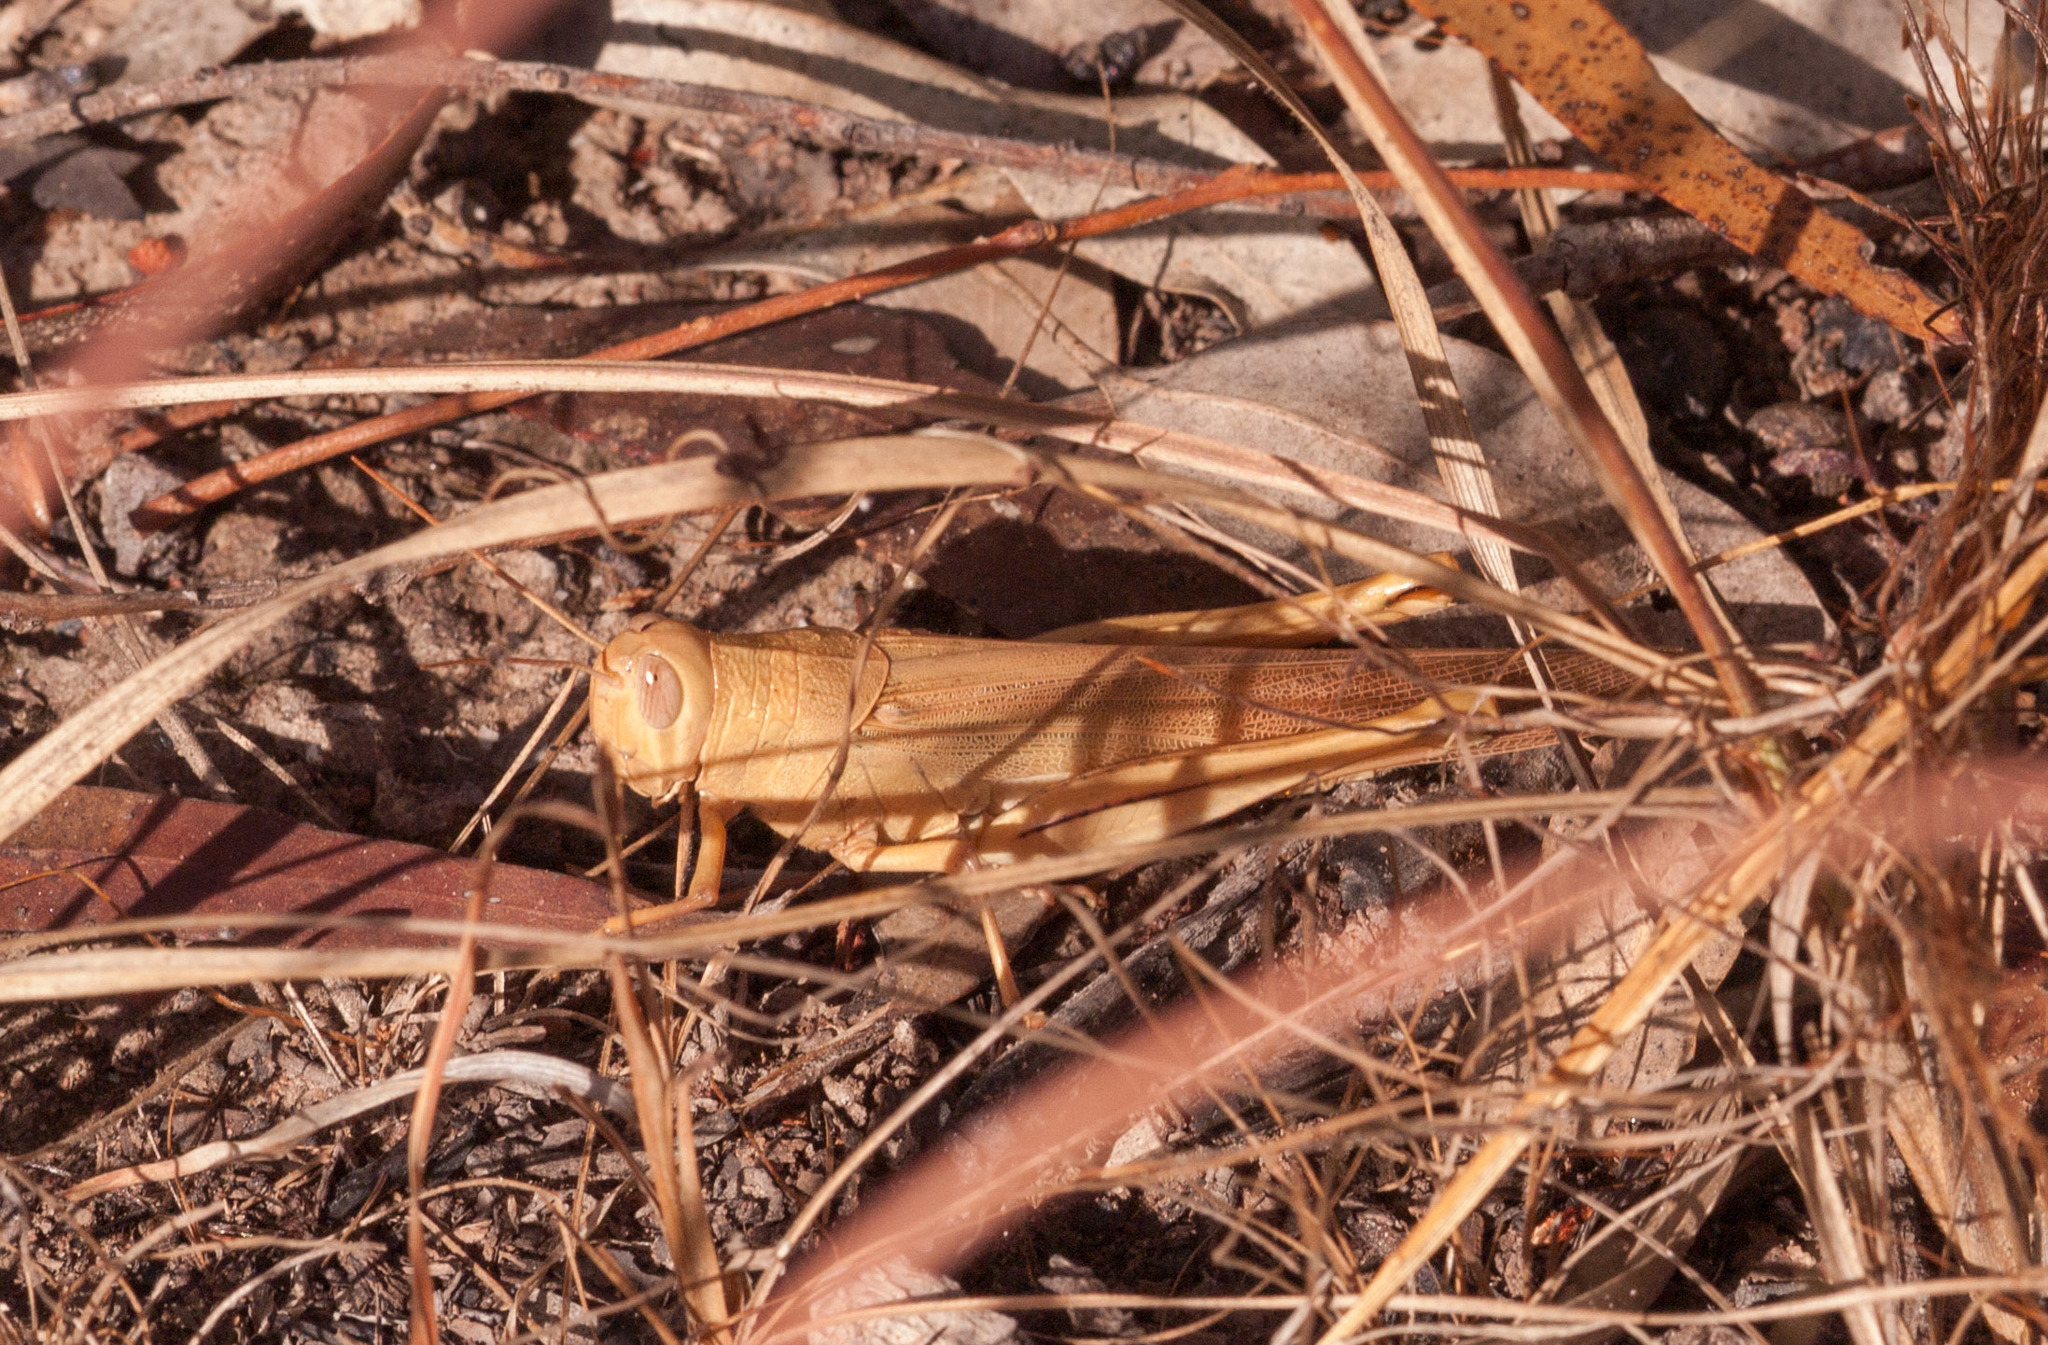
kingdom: Animalia
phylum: Arthropoda
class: Insecta
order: Orthoptera
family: Acrididae
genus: Austracris
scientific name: Austracris
